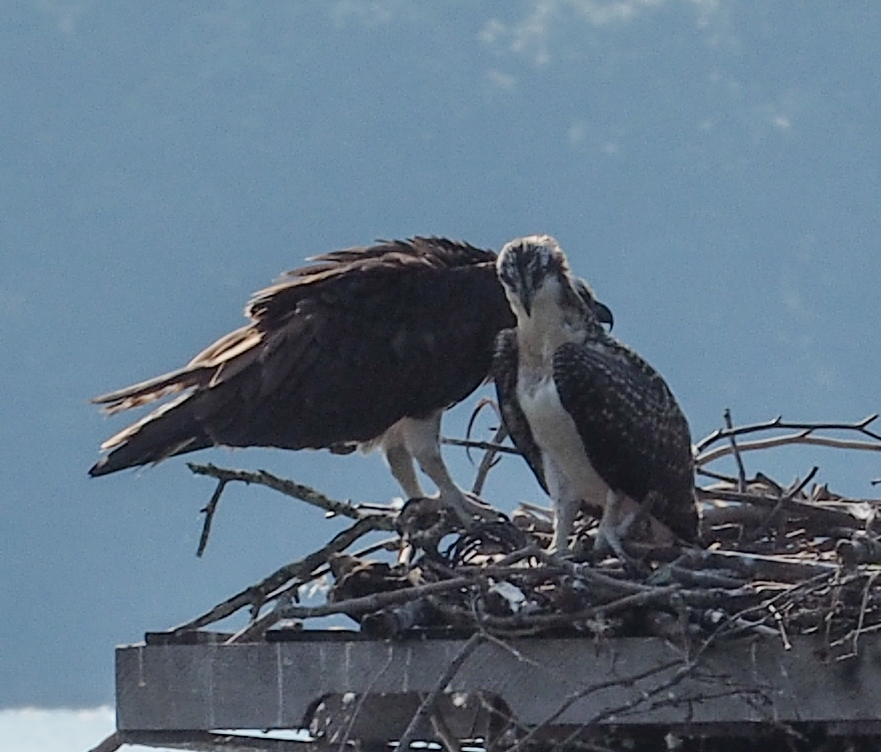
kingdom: Animalia
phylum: Chordata
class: Aves
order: Accipitriformes
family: Pandionidae
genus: Pandion
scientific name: Pandion haliaetus
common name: Osprey
